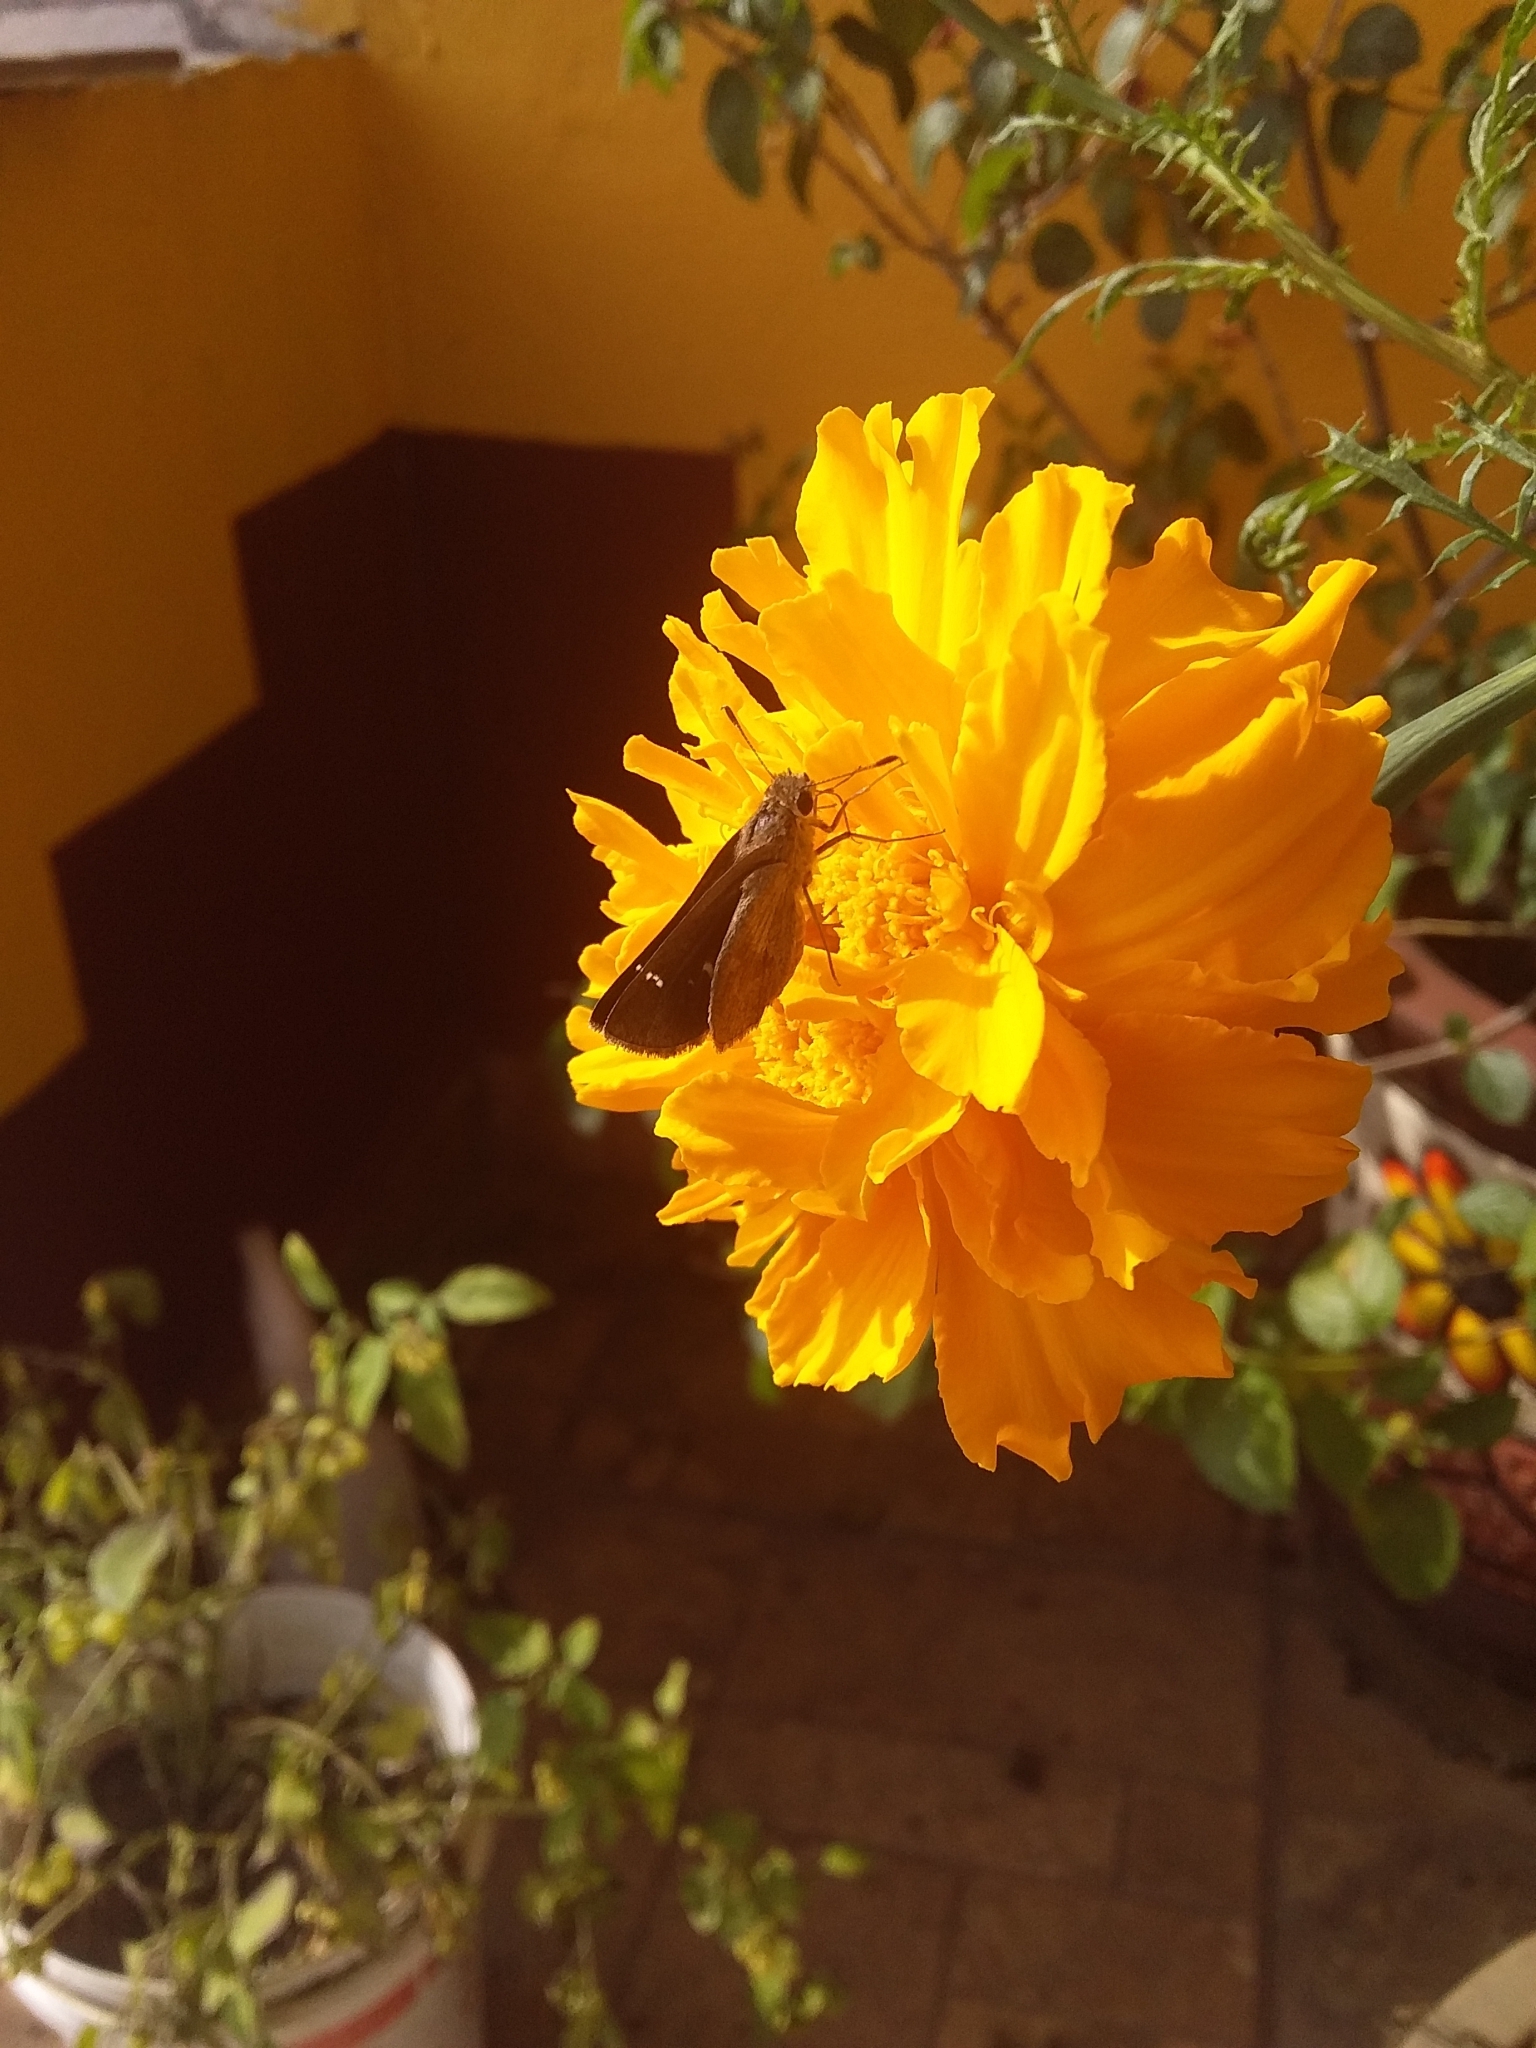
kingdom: Animalia
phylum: Arthropoda
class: Insecta
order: Lepidoptera
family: Hesperiidae
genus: Lerodea
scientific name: Lerodea dysaules
